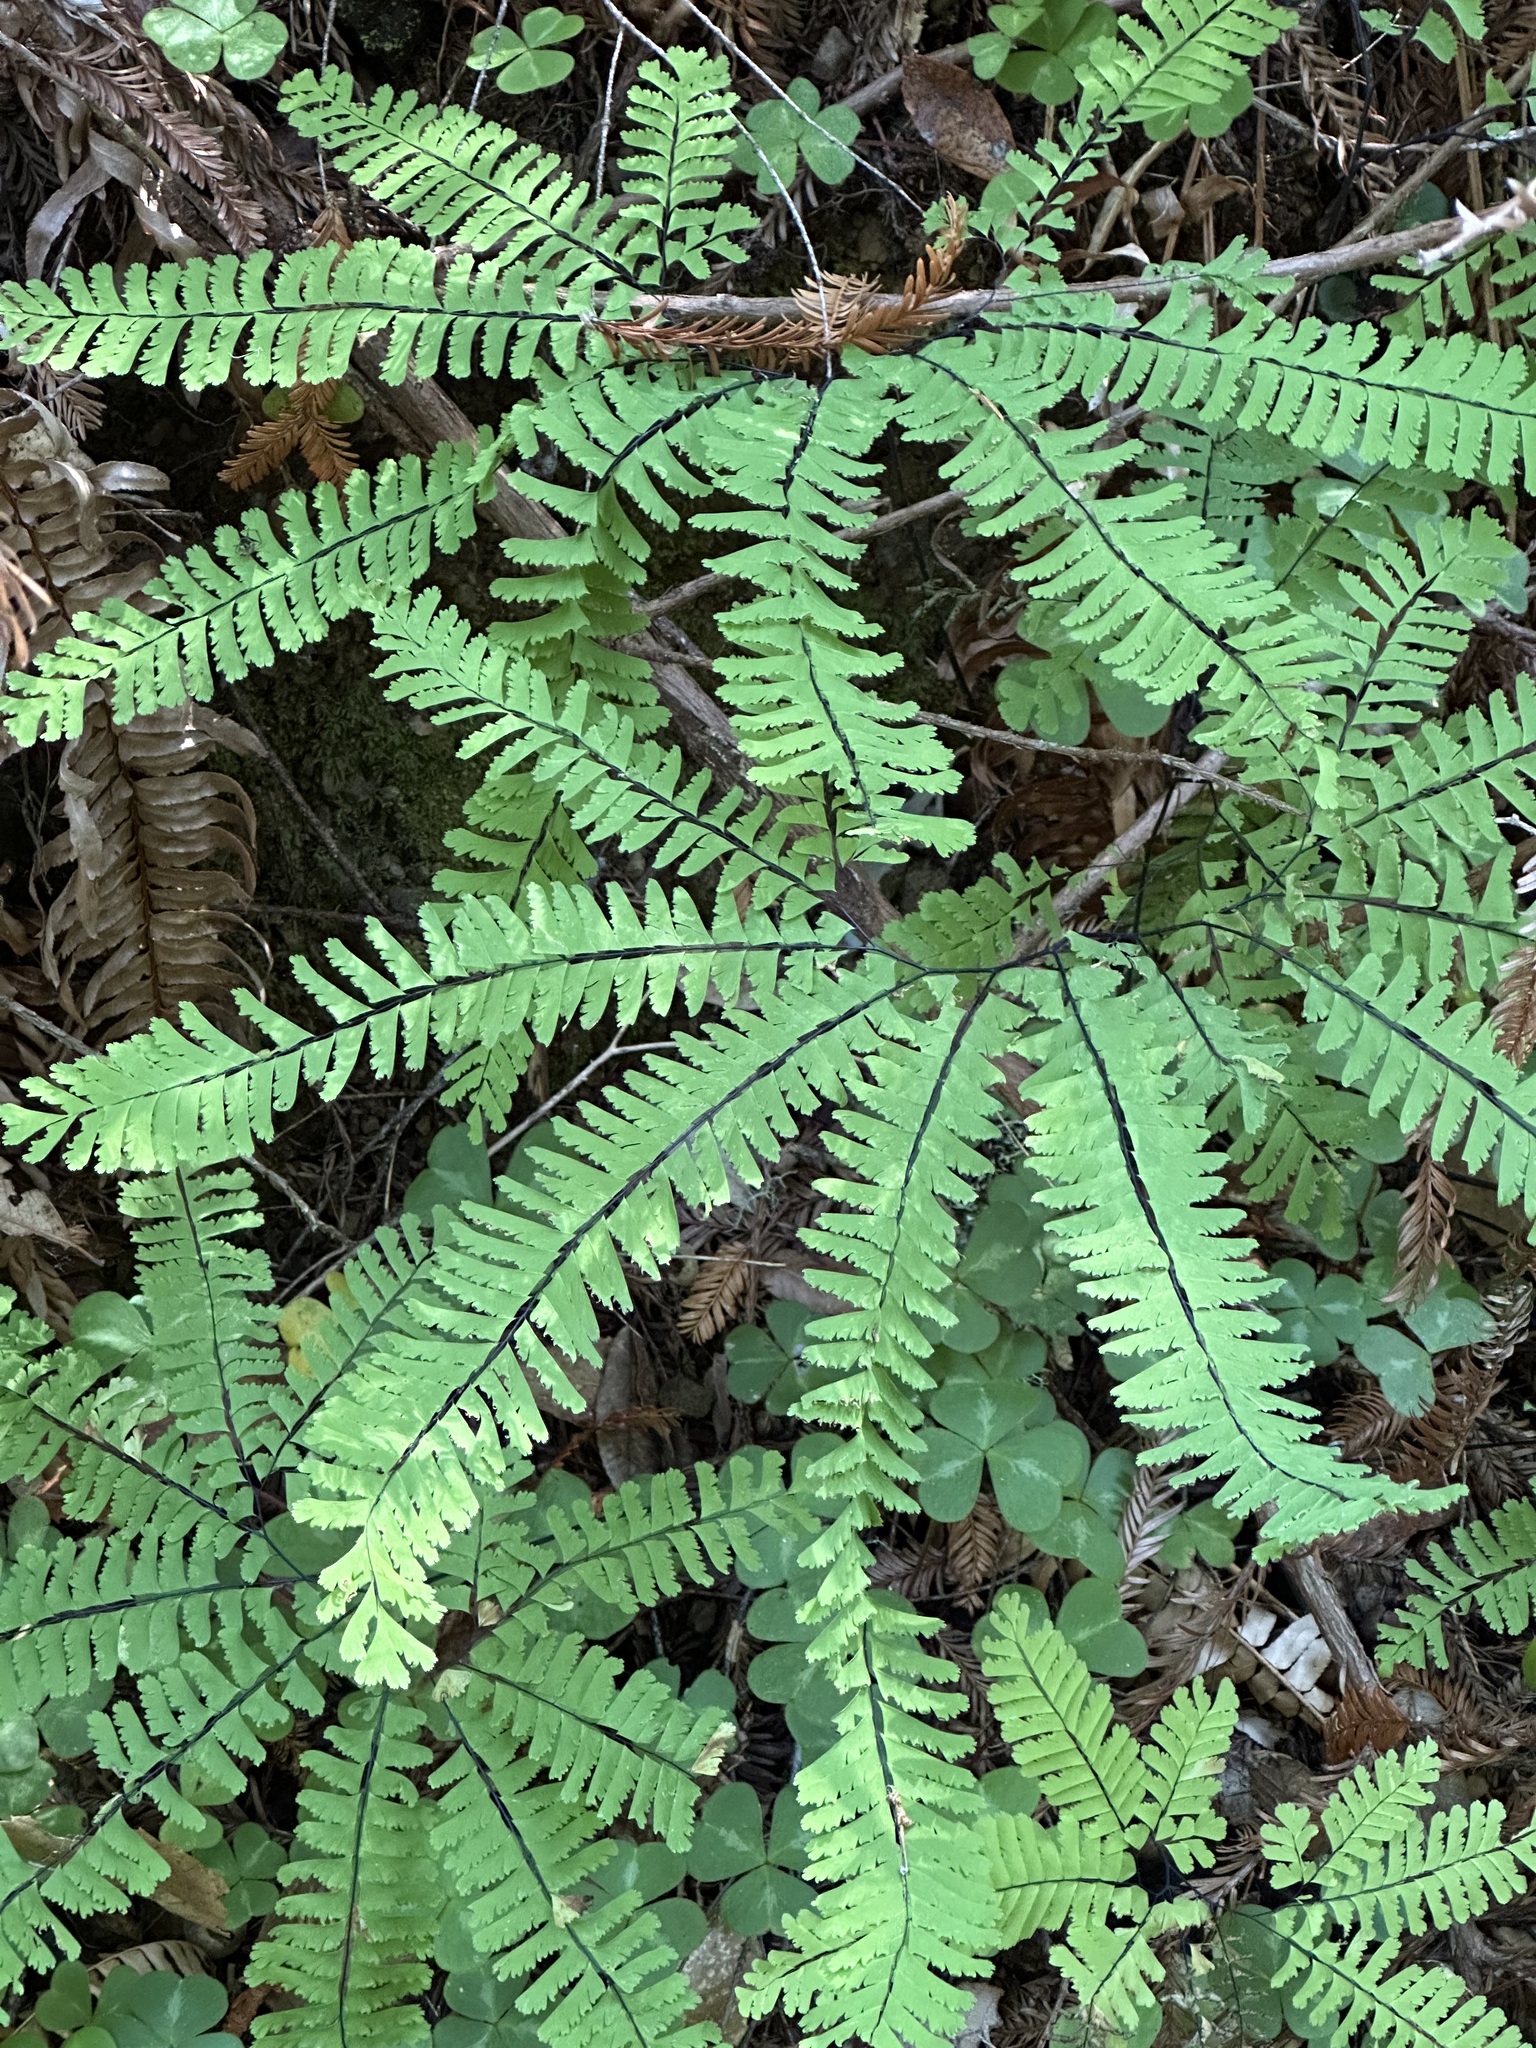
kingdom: Plantae
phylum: Tracheophyta
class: Polypodiopsida
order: Polypodiales
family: Pteridaceae
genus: Adiantum
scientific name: Adiantum aleuticum
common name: Aleutian maidenhair fern
